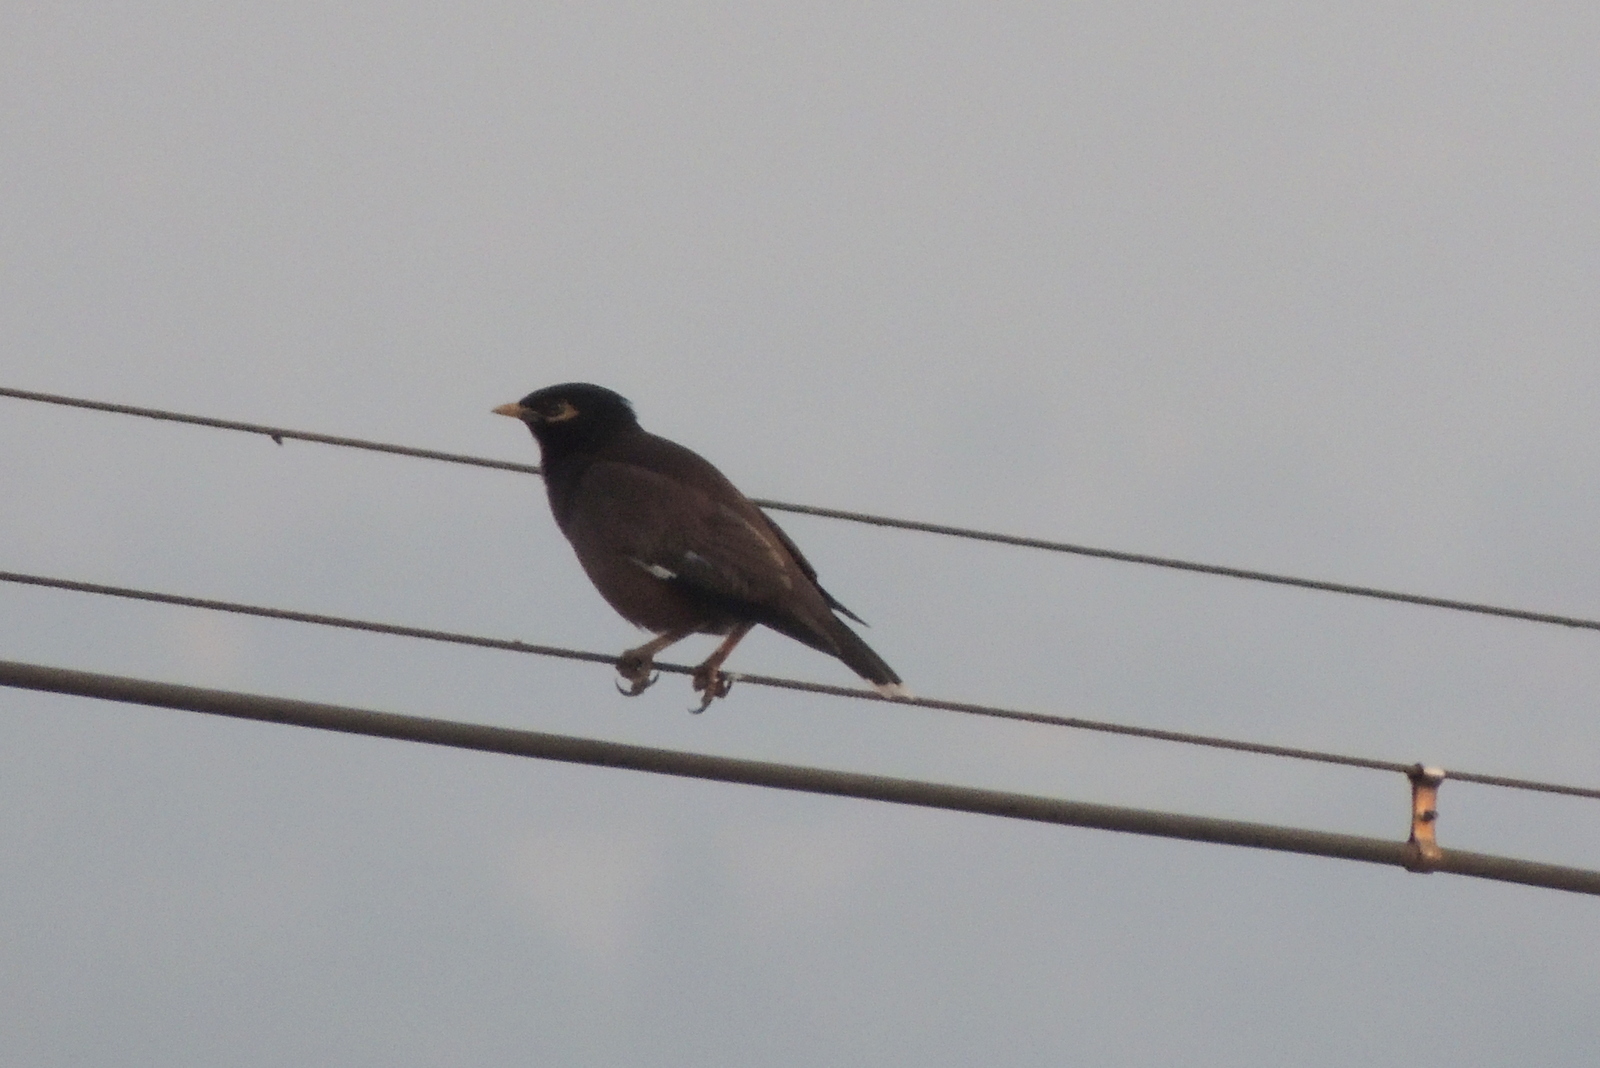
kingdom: Animalia
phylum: Chordata
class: Aves
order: Passeriformes
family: Sturnidae
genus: Acridotheres
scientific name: Acridotheres tristis
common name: Common myna
